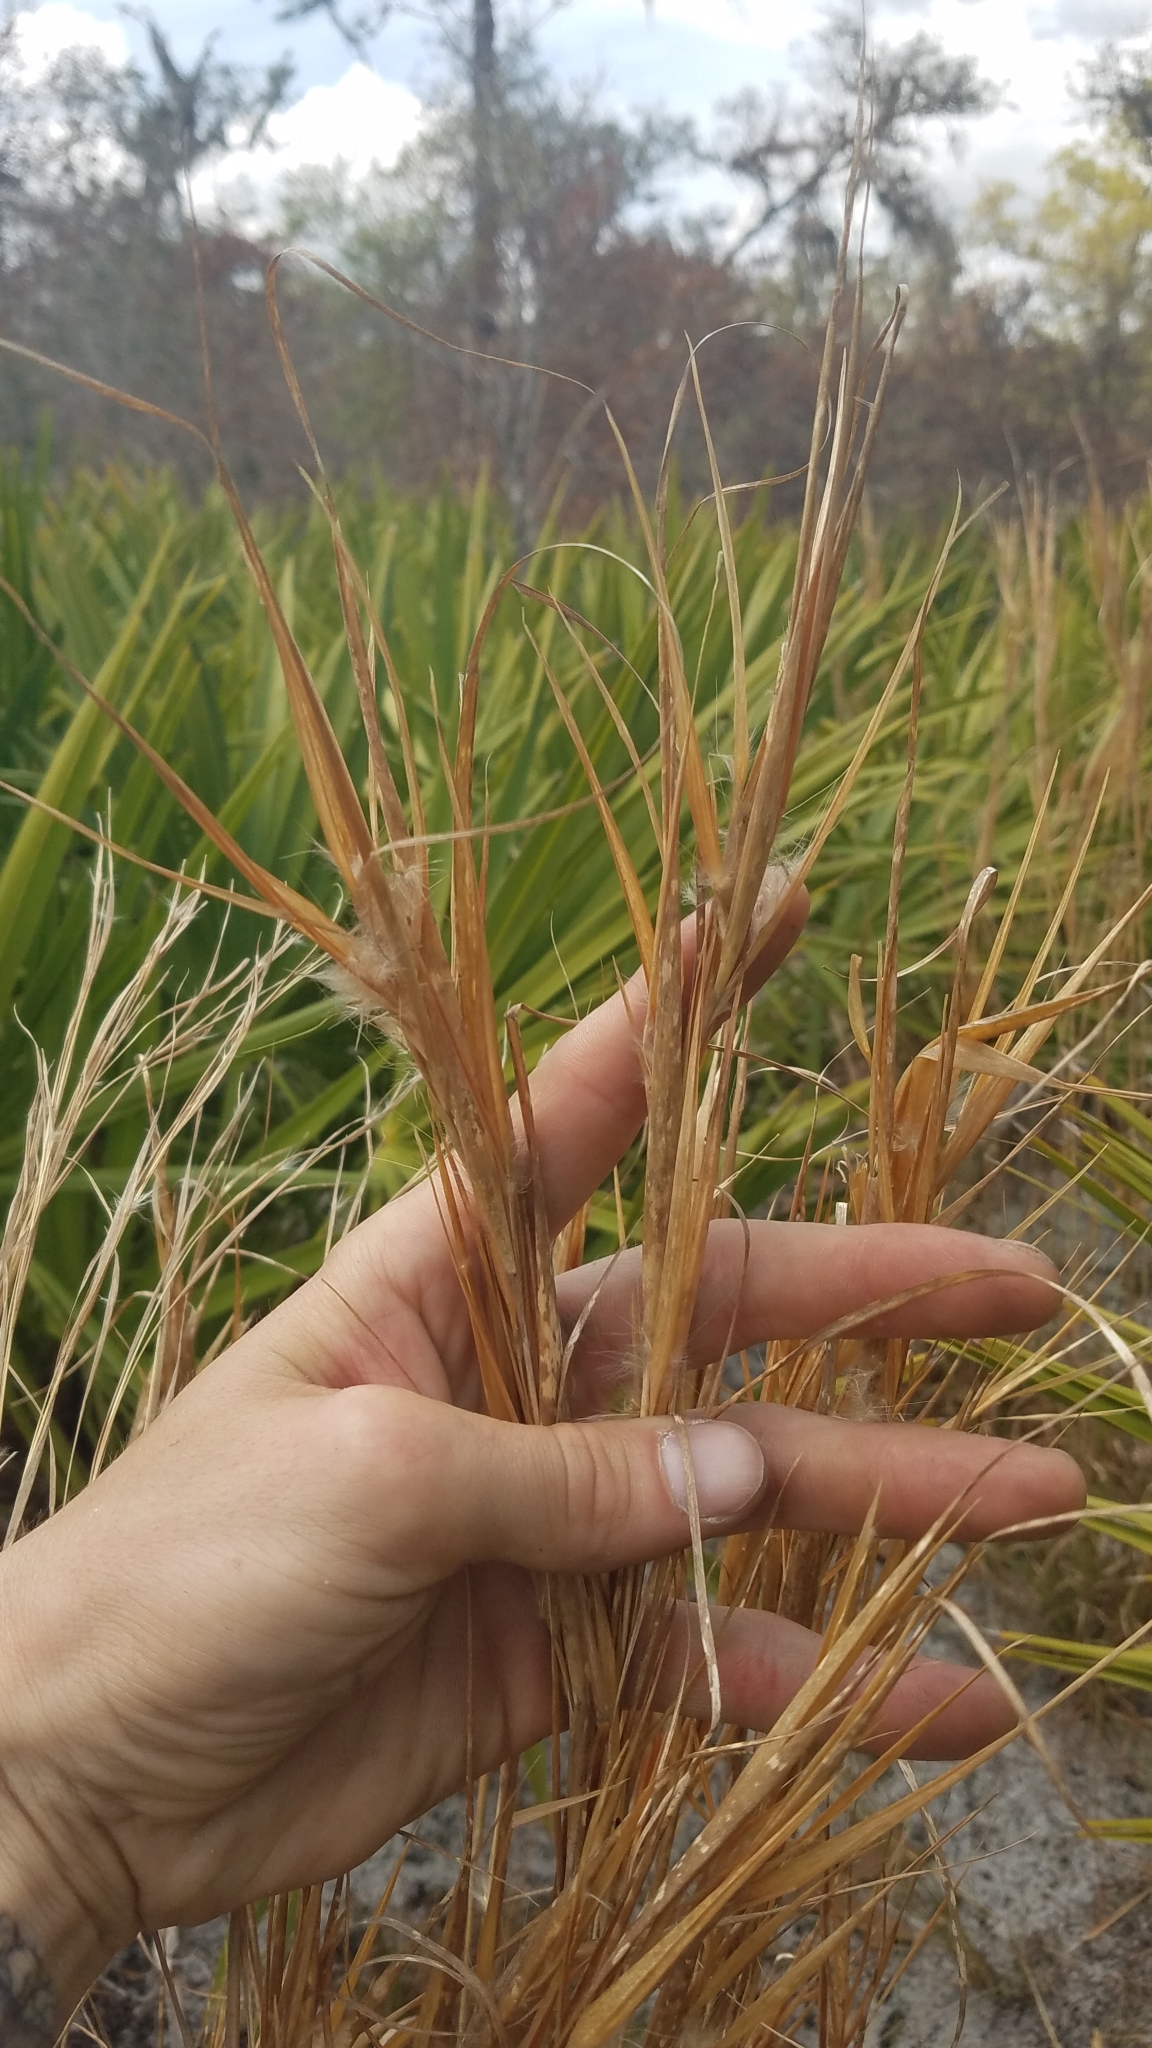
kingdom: Plantae
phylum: Tracheophyta
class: Liliopsida
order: Poales
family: Poaceae
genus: Andropogon
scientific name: Andropogon gyrans
